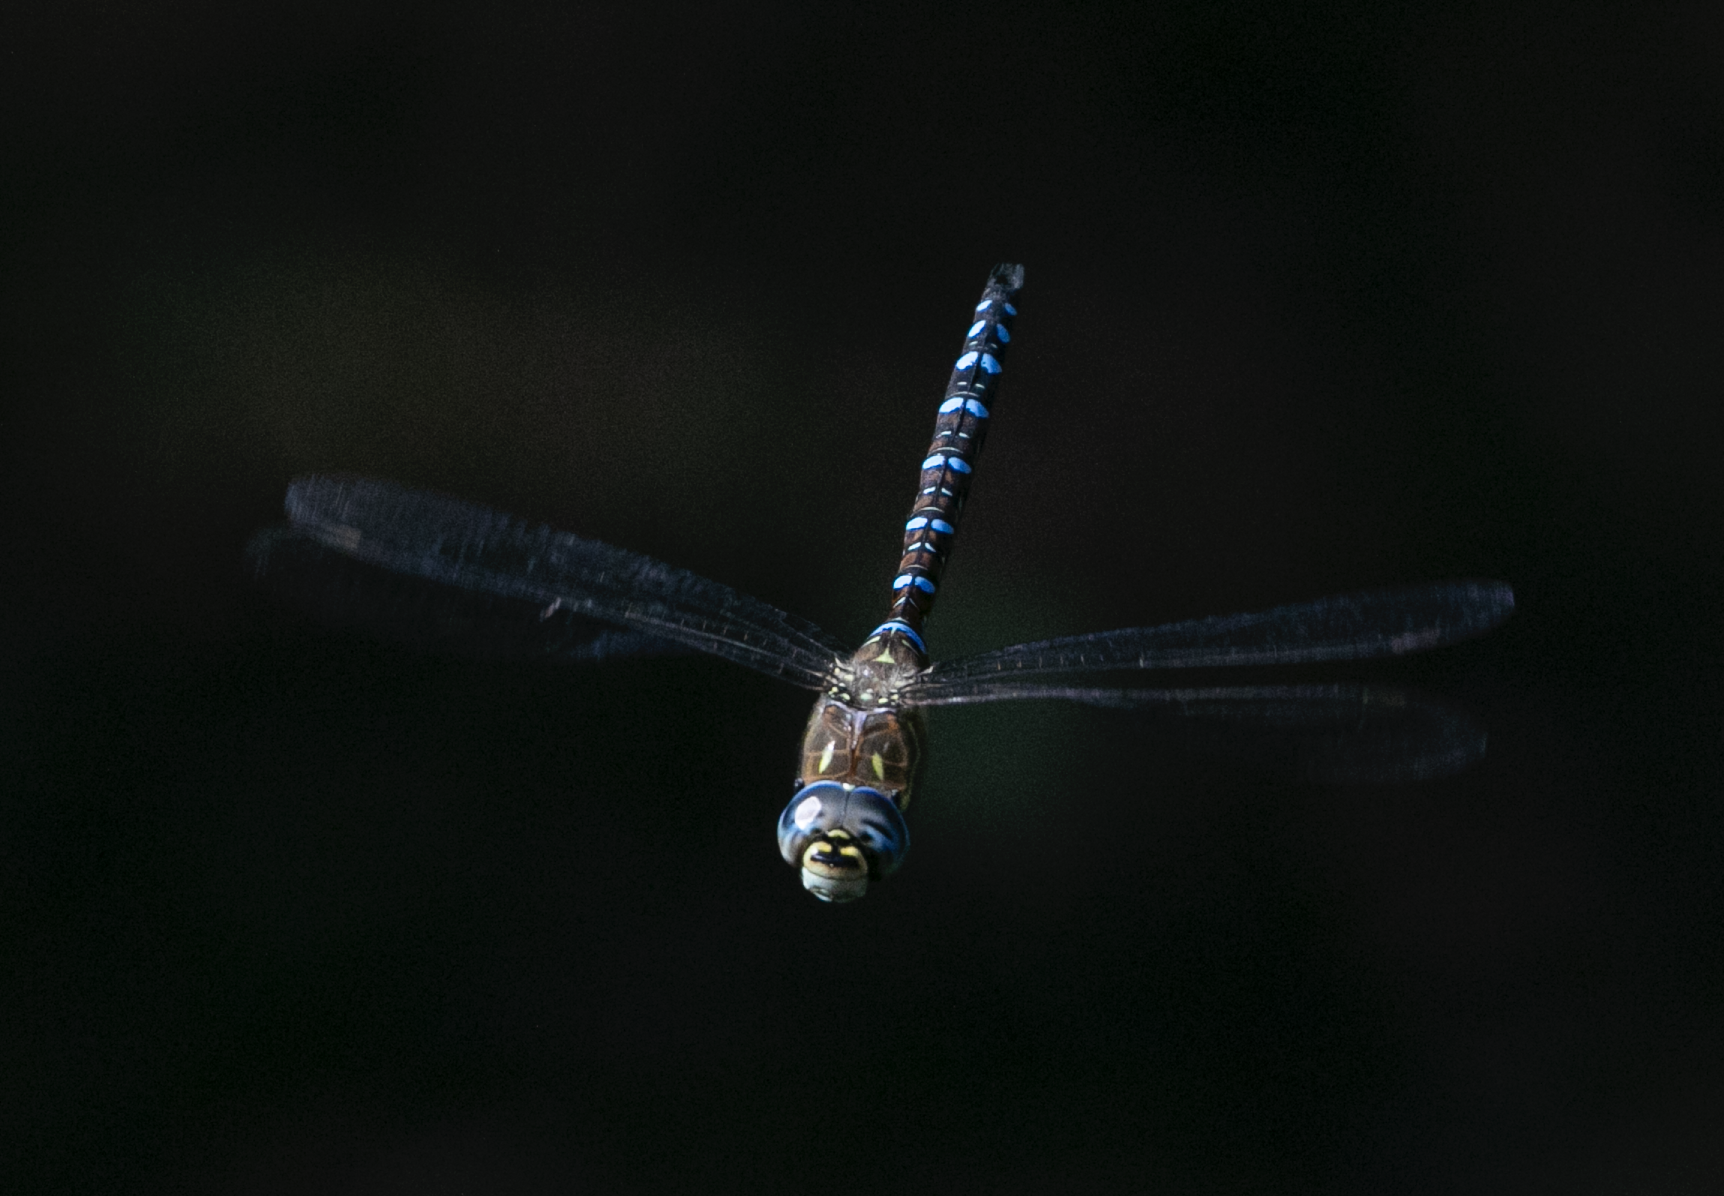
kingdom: Animalia
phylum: Arthropoda
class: Insecta
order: Odonata
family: Aeshnidae
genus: Aeshna
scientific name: Aeshna mixta
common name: Migrant hawker
